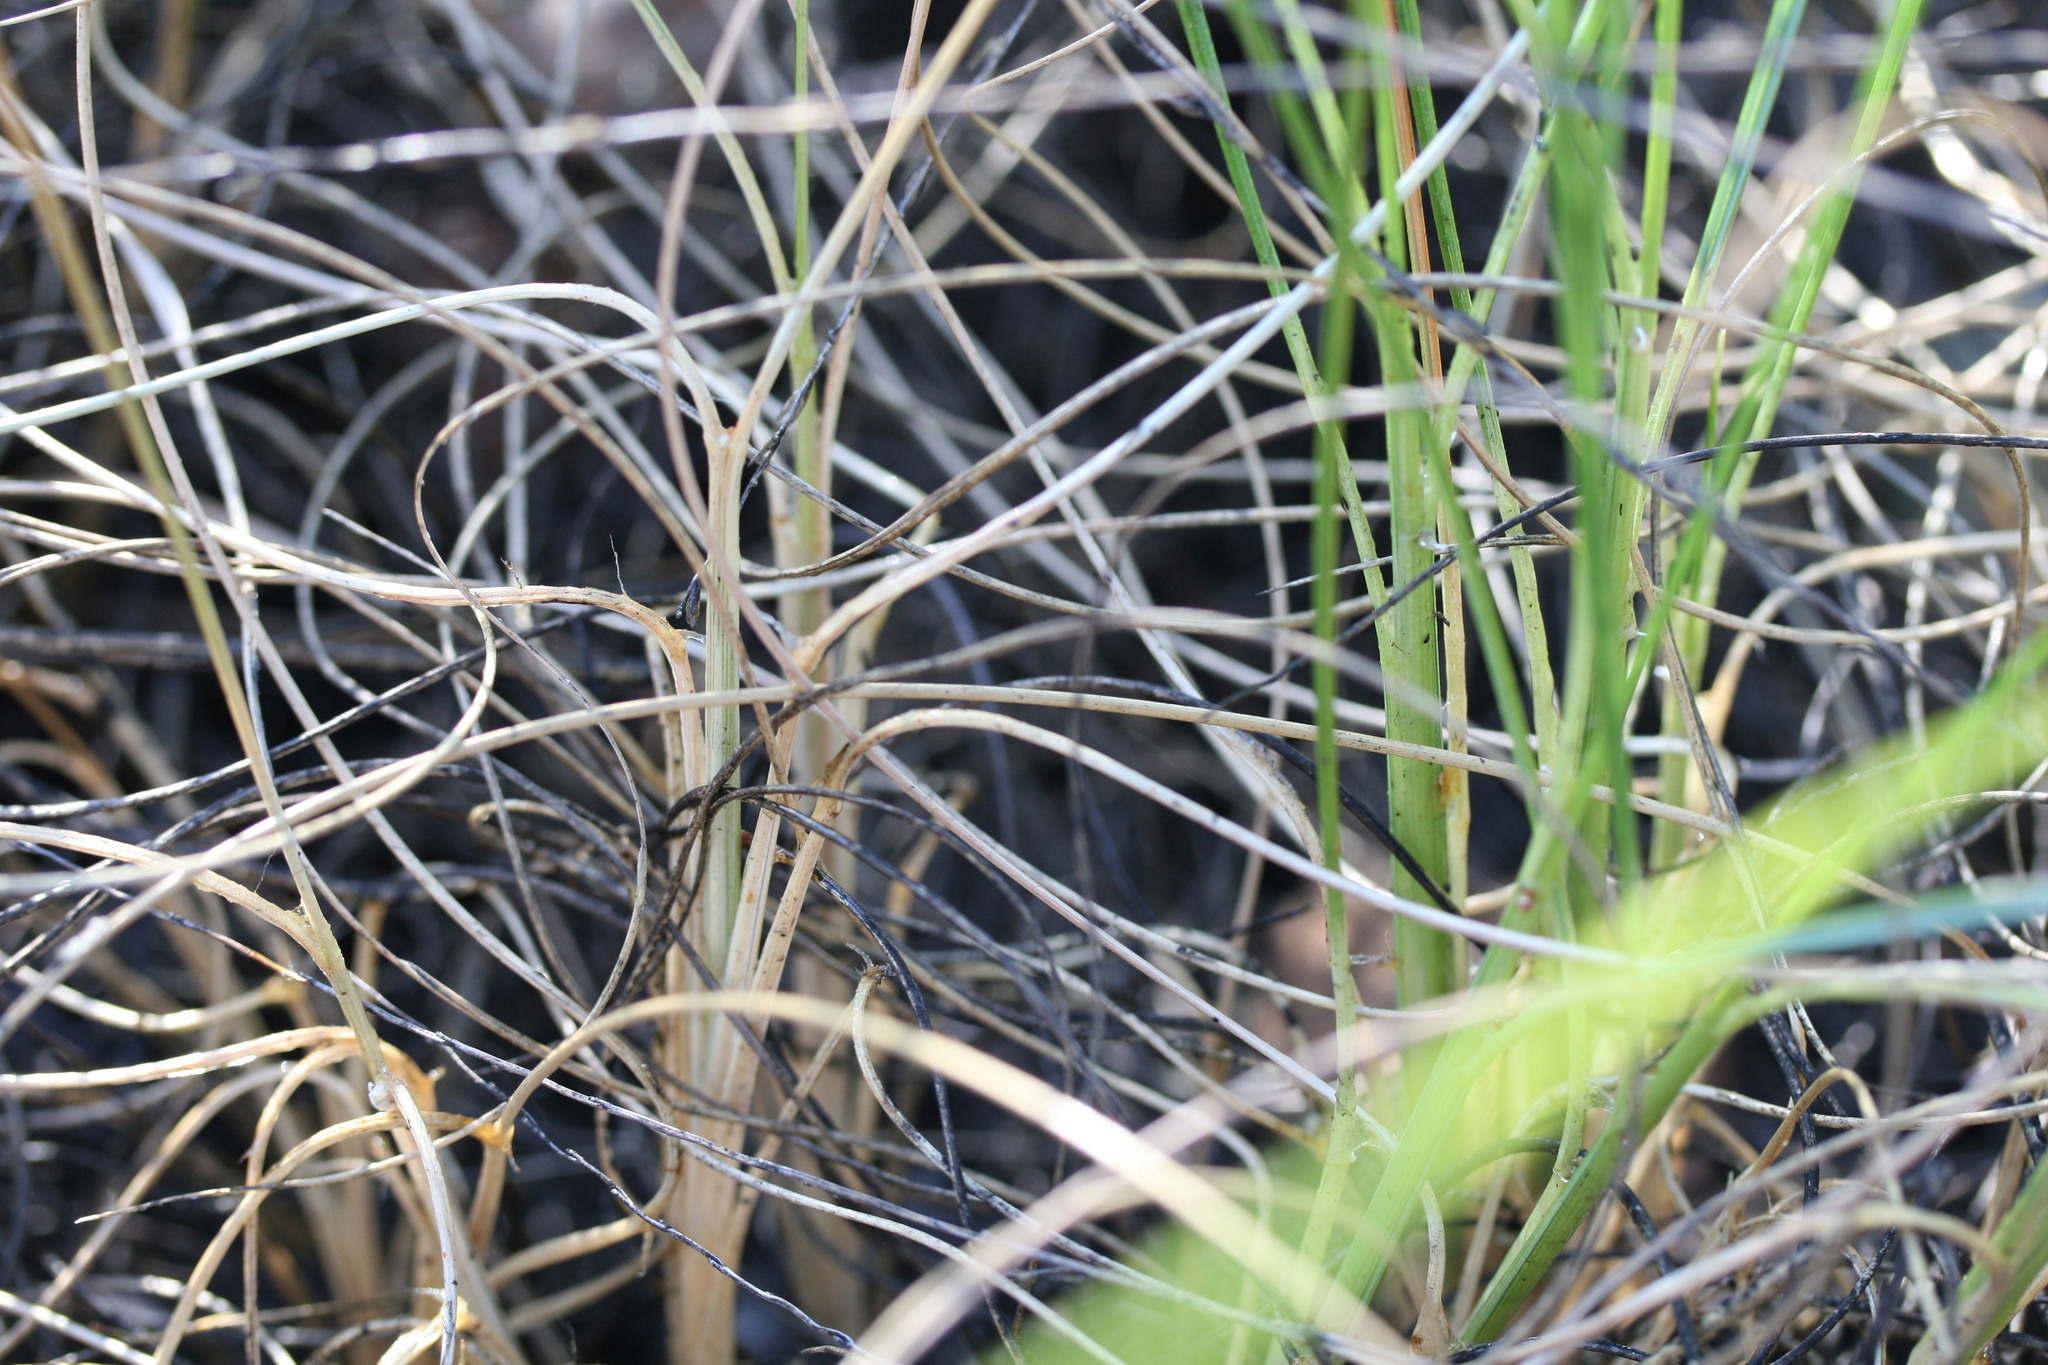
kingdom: Plantae
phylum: Tracheophyta
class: Liliopsida
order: Poales
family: Poaceae
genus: Triodia
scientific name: Triodia longiloba
